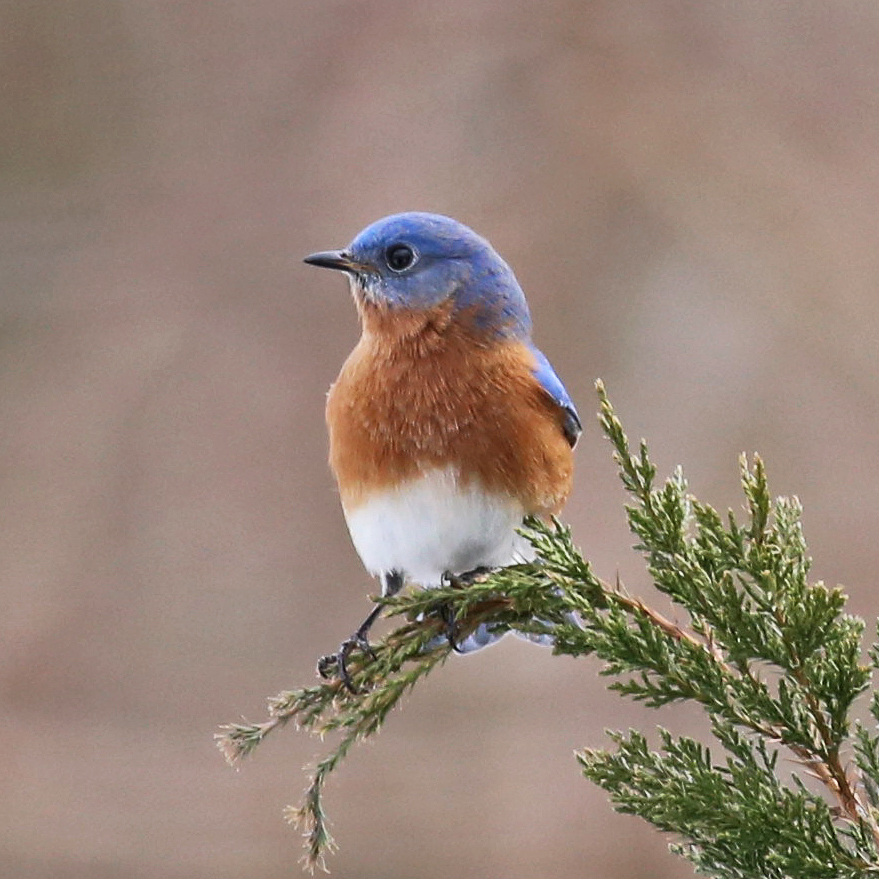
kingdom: Animalia
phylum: Chordata
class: Aves
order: Passeriformes
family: Turdidae
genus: Sialia
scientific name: Sialia sialis
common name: Eastern bluebird
